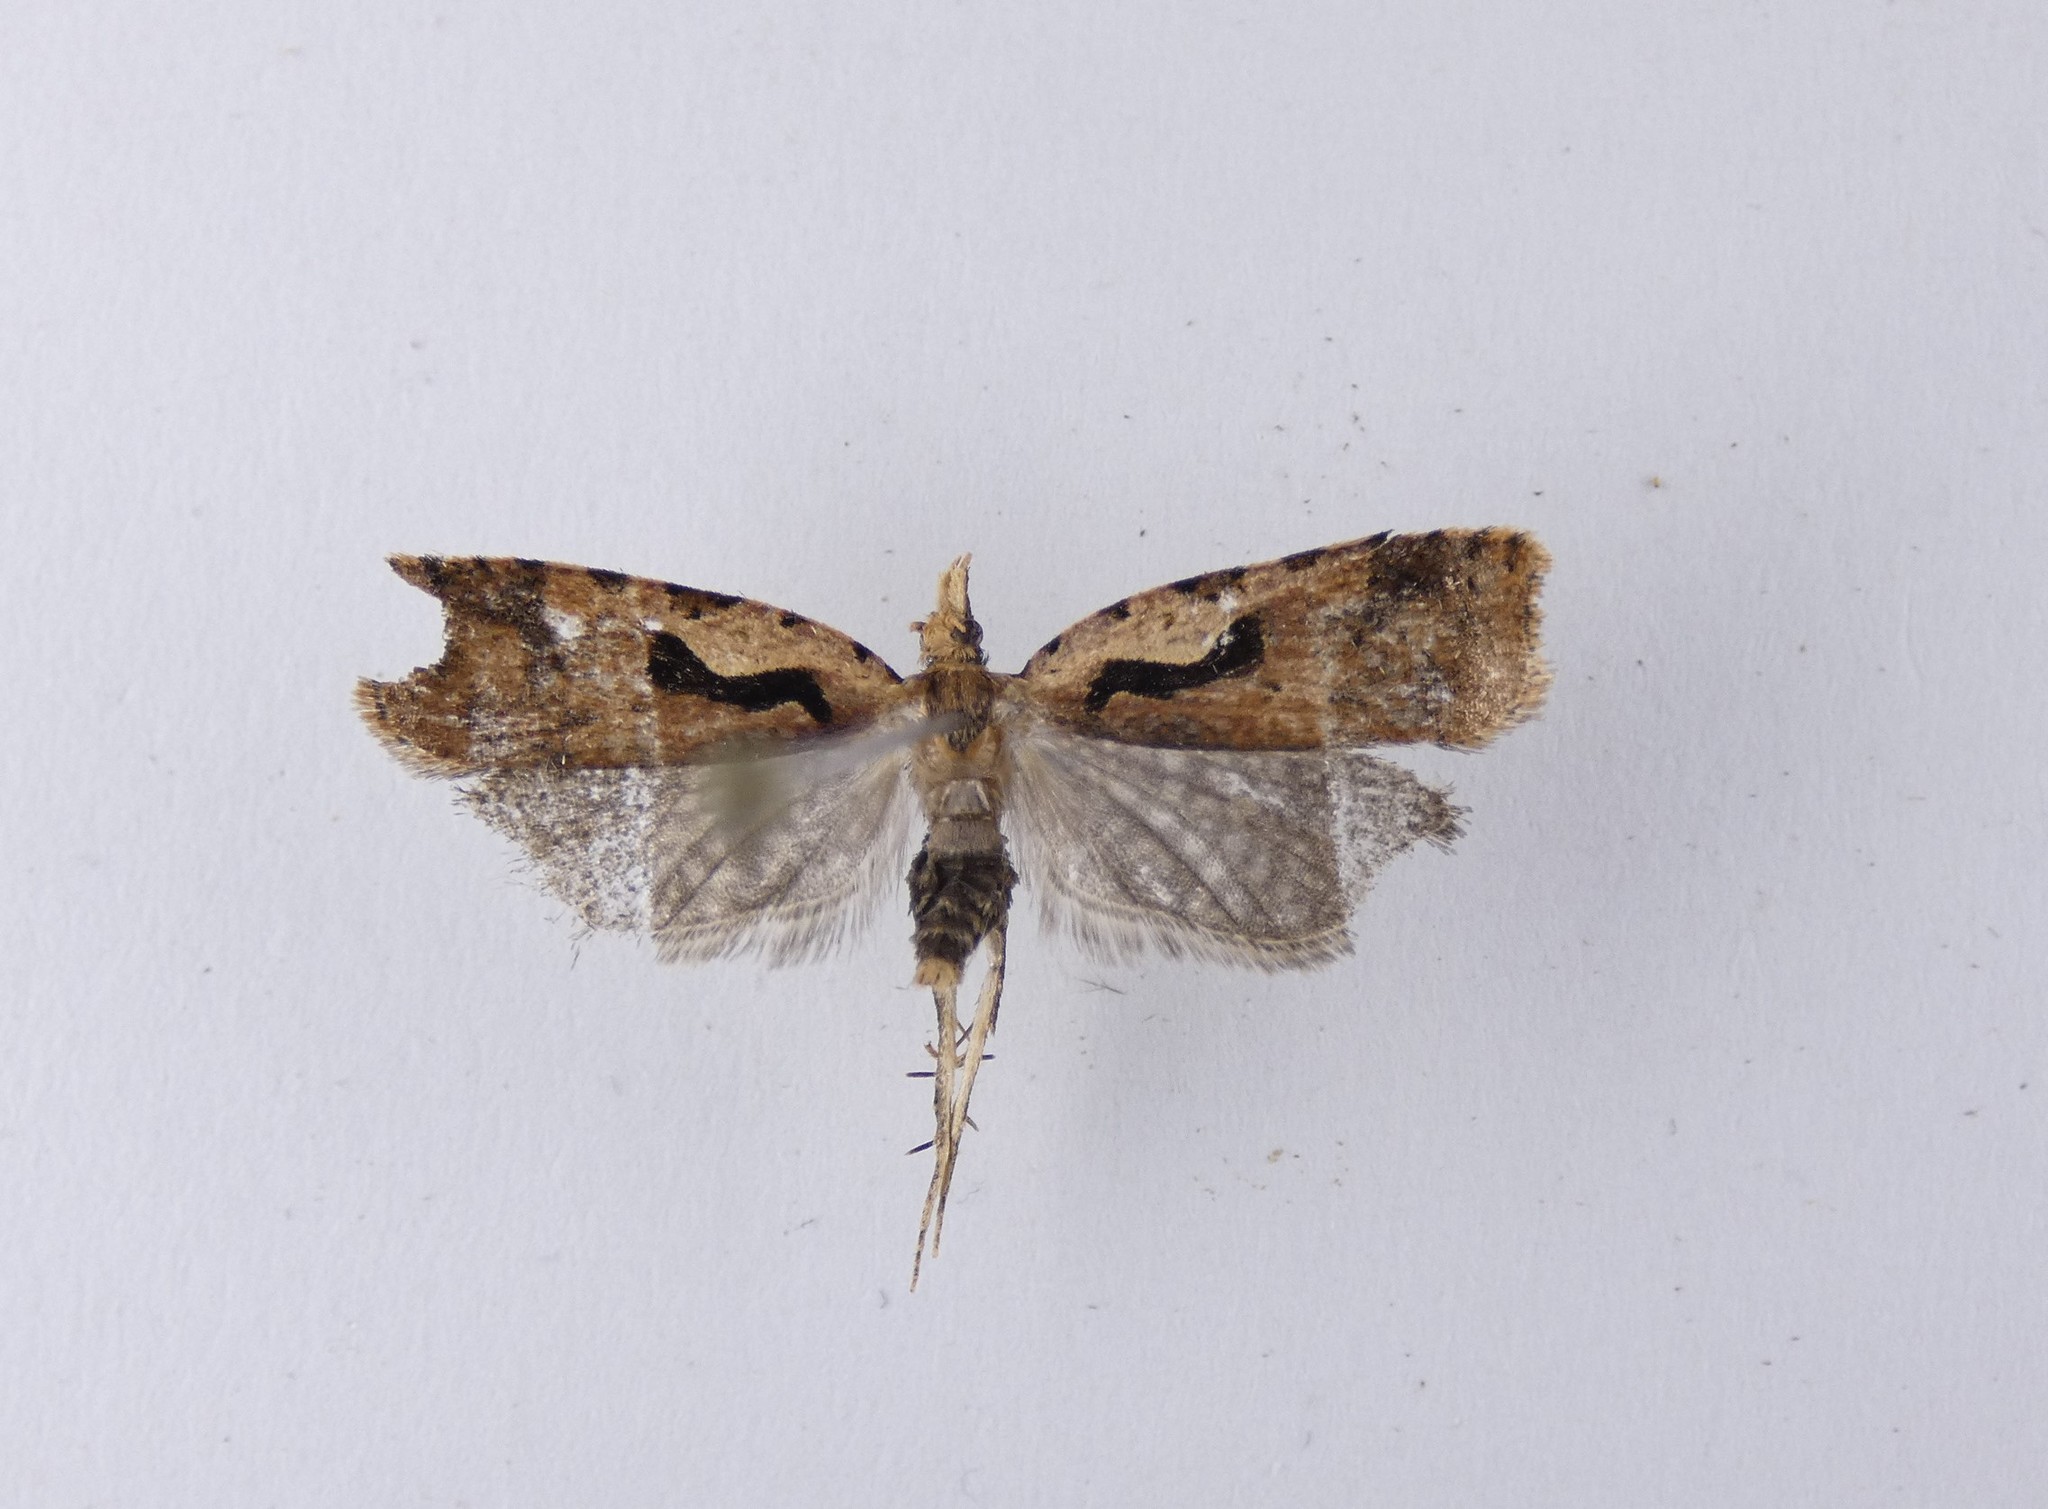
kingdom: Animalia
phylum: Arthropoda
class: Insecta
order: Lepidoptera
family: Tortricidae
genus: Cnephasia
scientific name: Cnephasia jactatana
